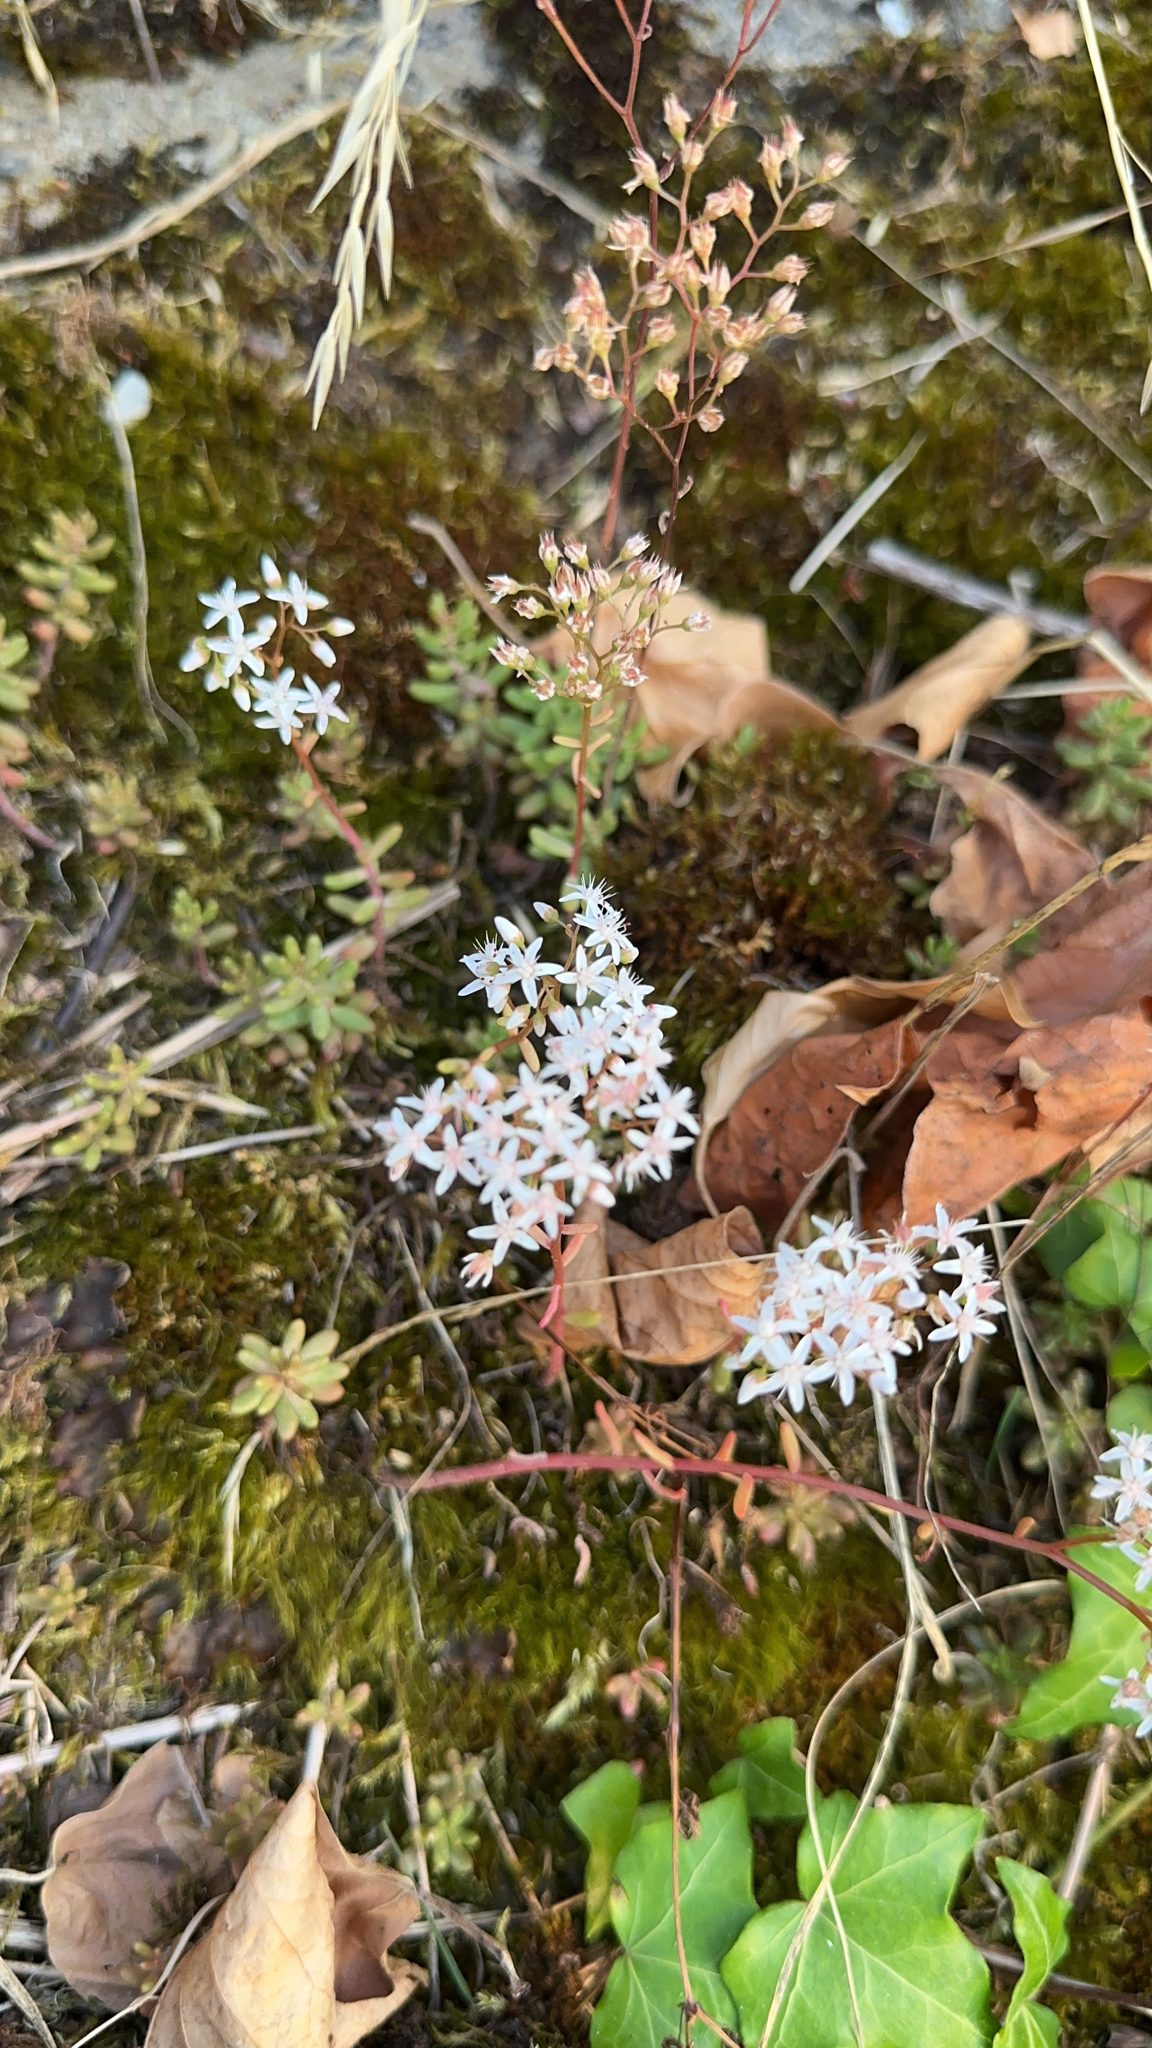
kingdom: Plantae
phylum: Tracheophyta
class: Magnoliopsida
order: Saxifragales
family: Crassulaceae
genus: Sedum
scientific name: Sedum album
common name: White stonecrop
